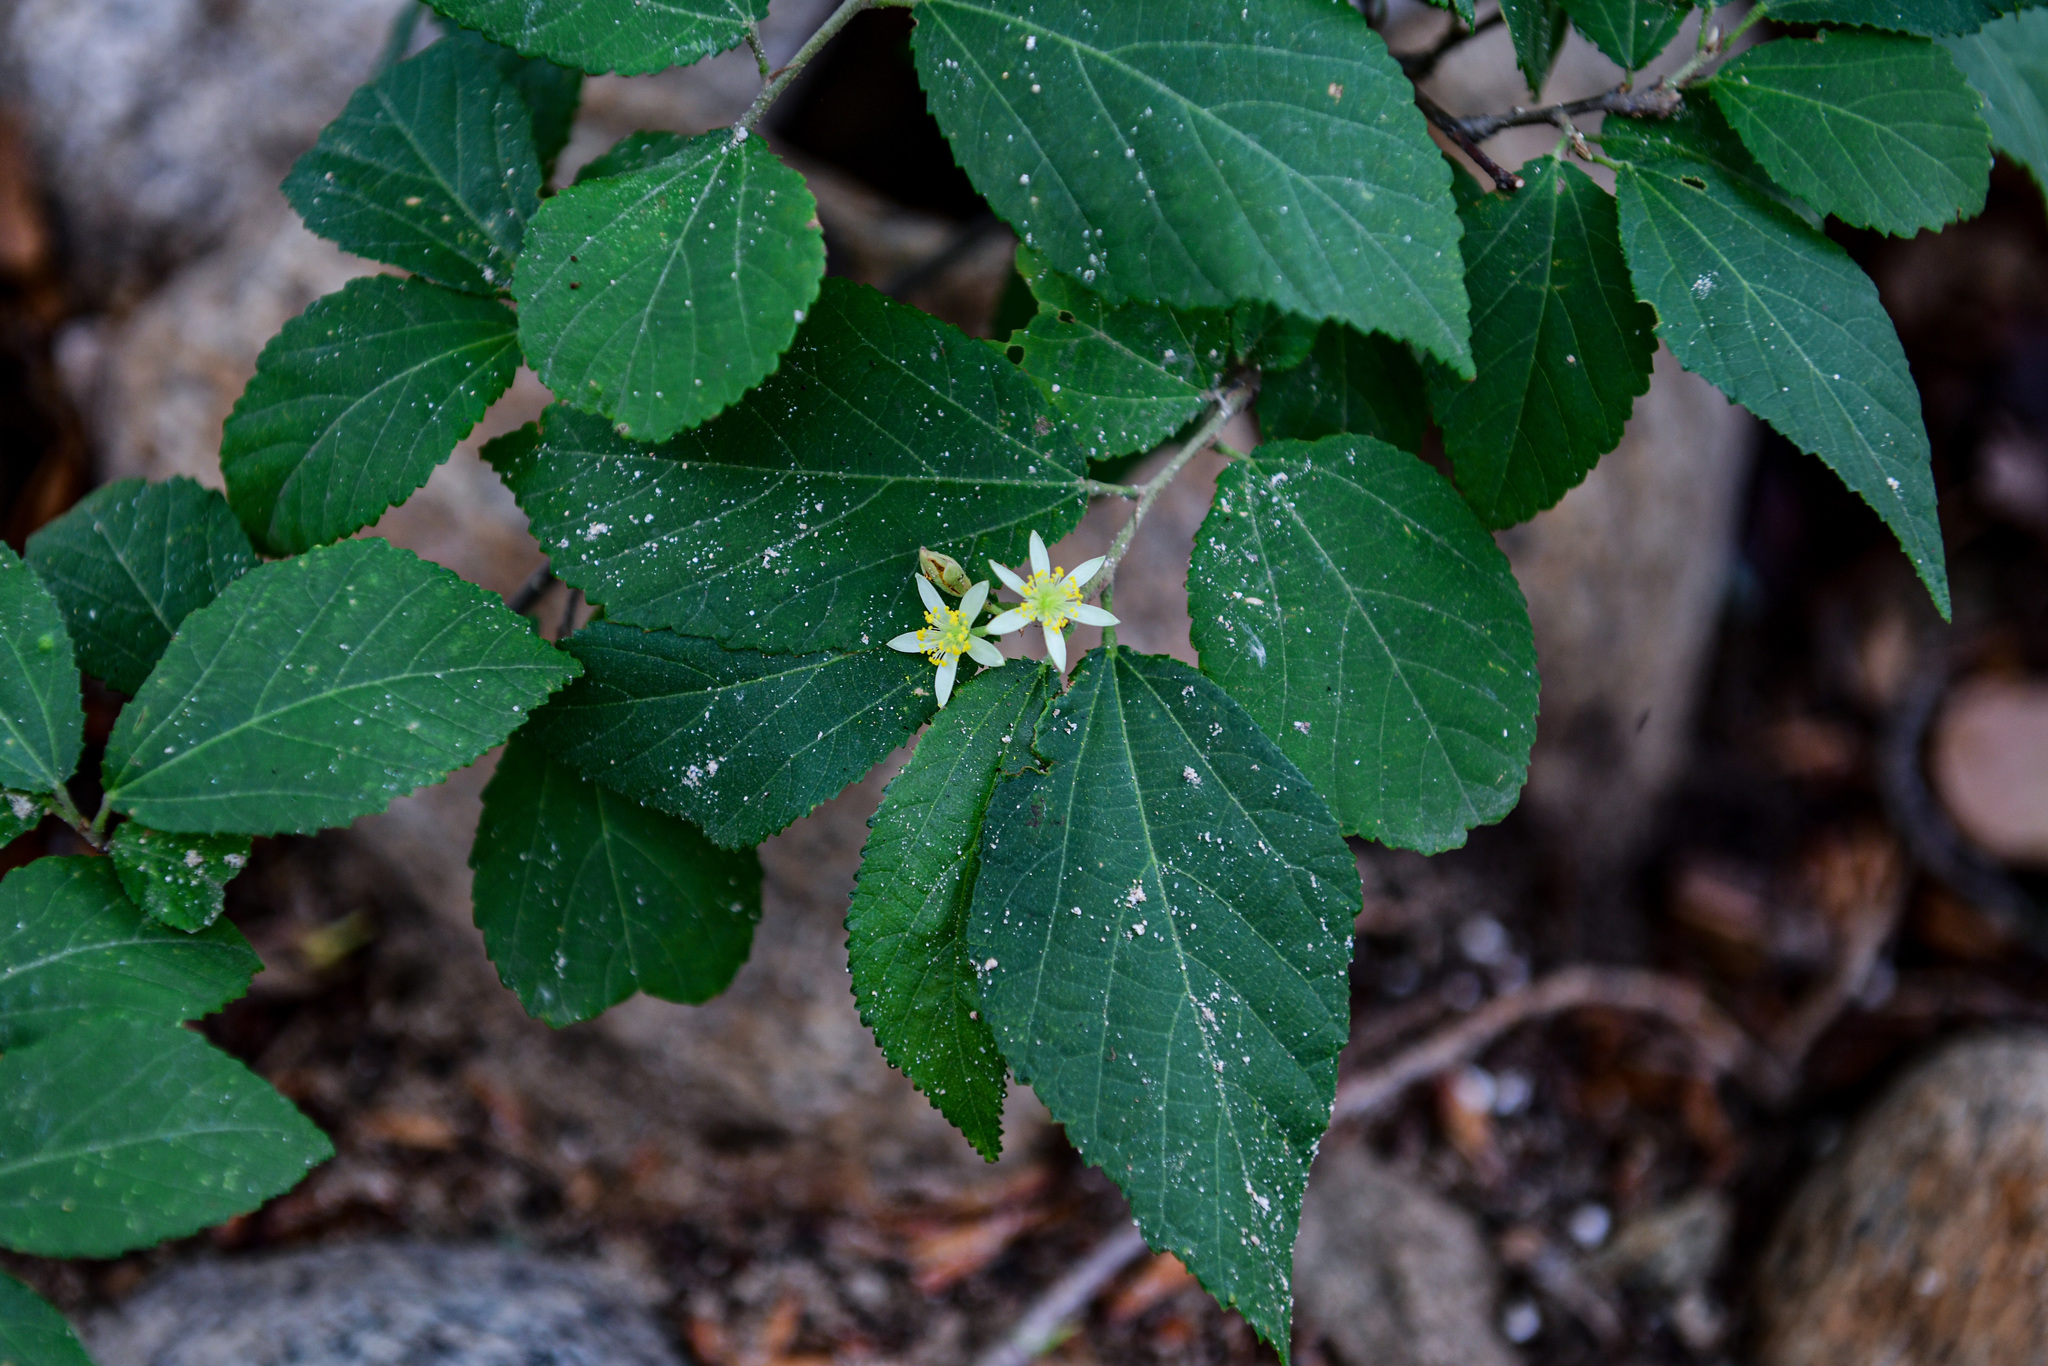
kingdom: Plantae
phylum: Tracheophyta
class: Magnoliopsida
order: Malvales
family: Malvaceae
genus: Grewia
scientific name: Grewia biloba
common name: Bilobed grewia
